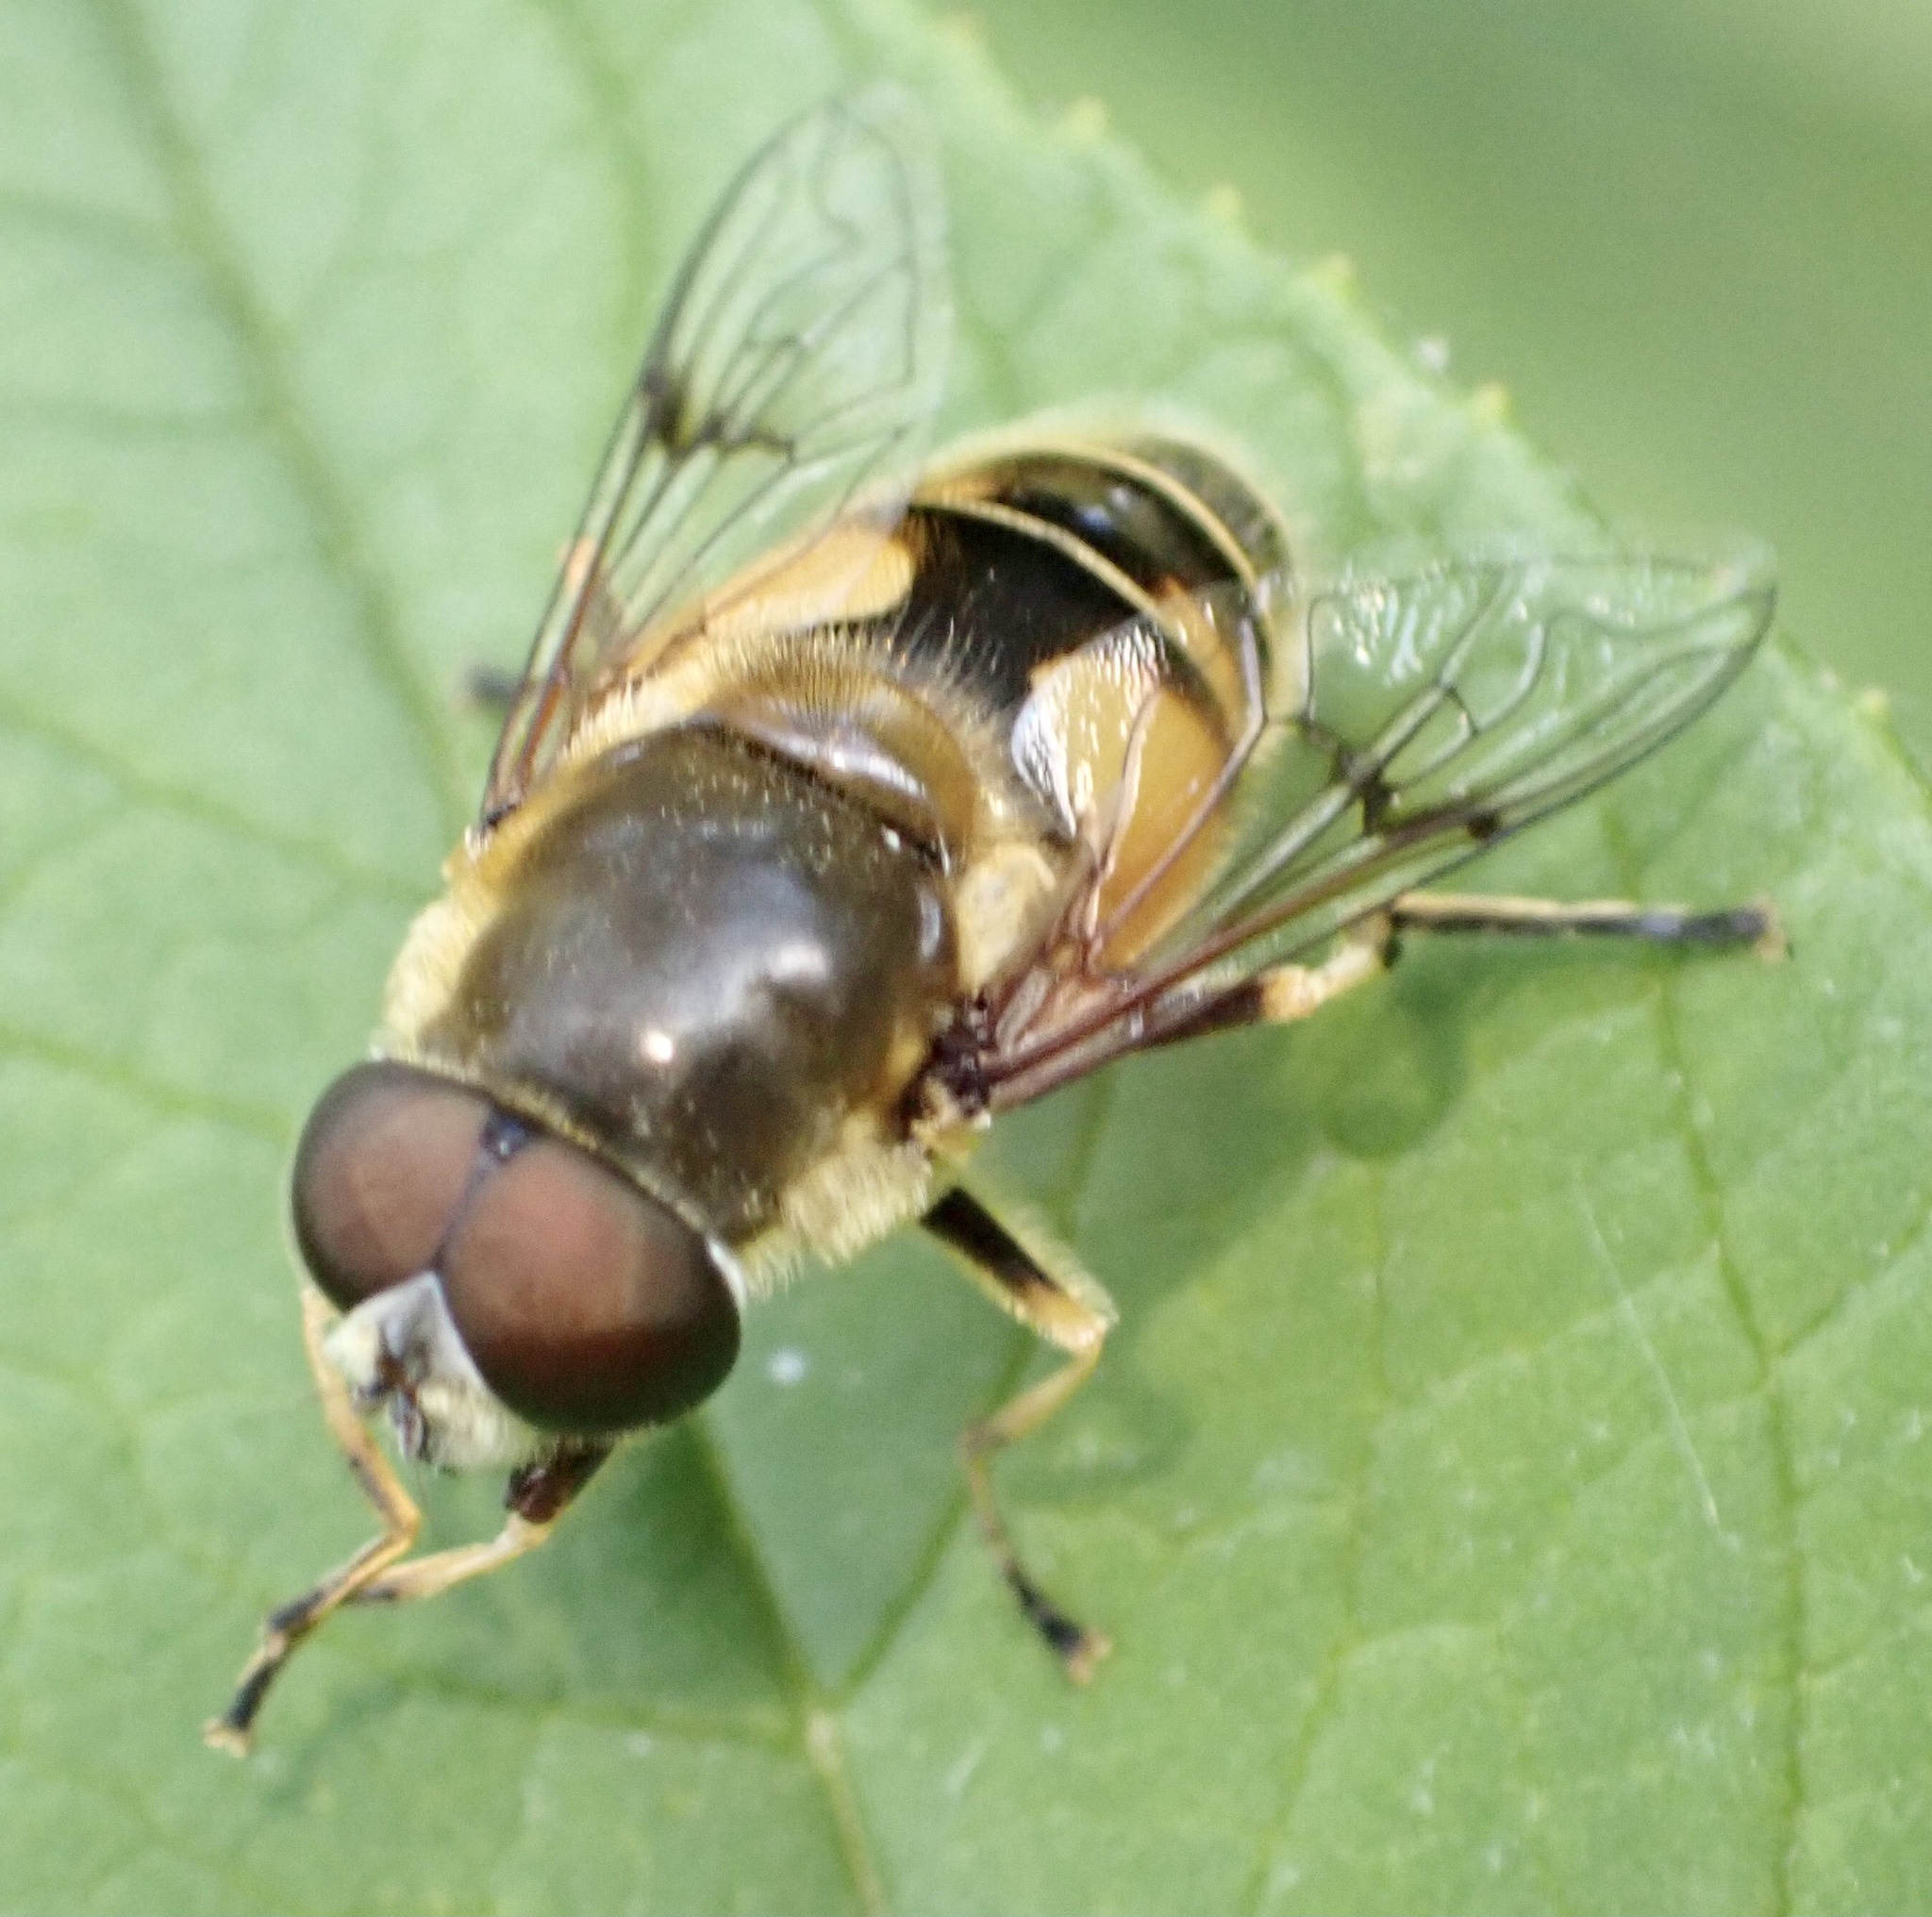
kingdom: Animalia
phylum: Arthropoda
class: Insecta
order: Diptera
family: Syrphidae
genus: Cheilosia
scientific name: Cheilosia morio
